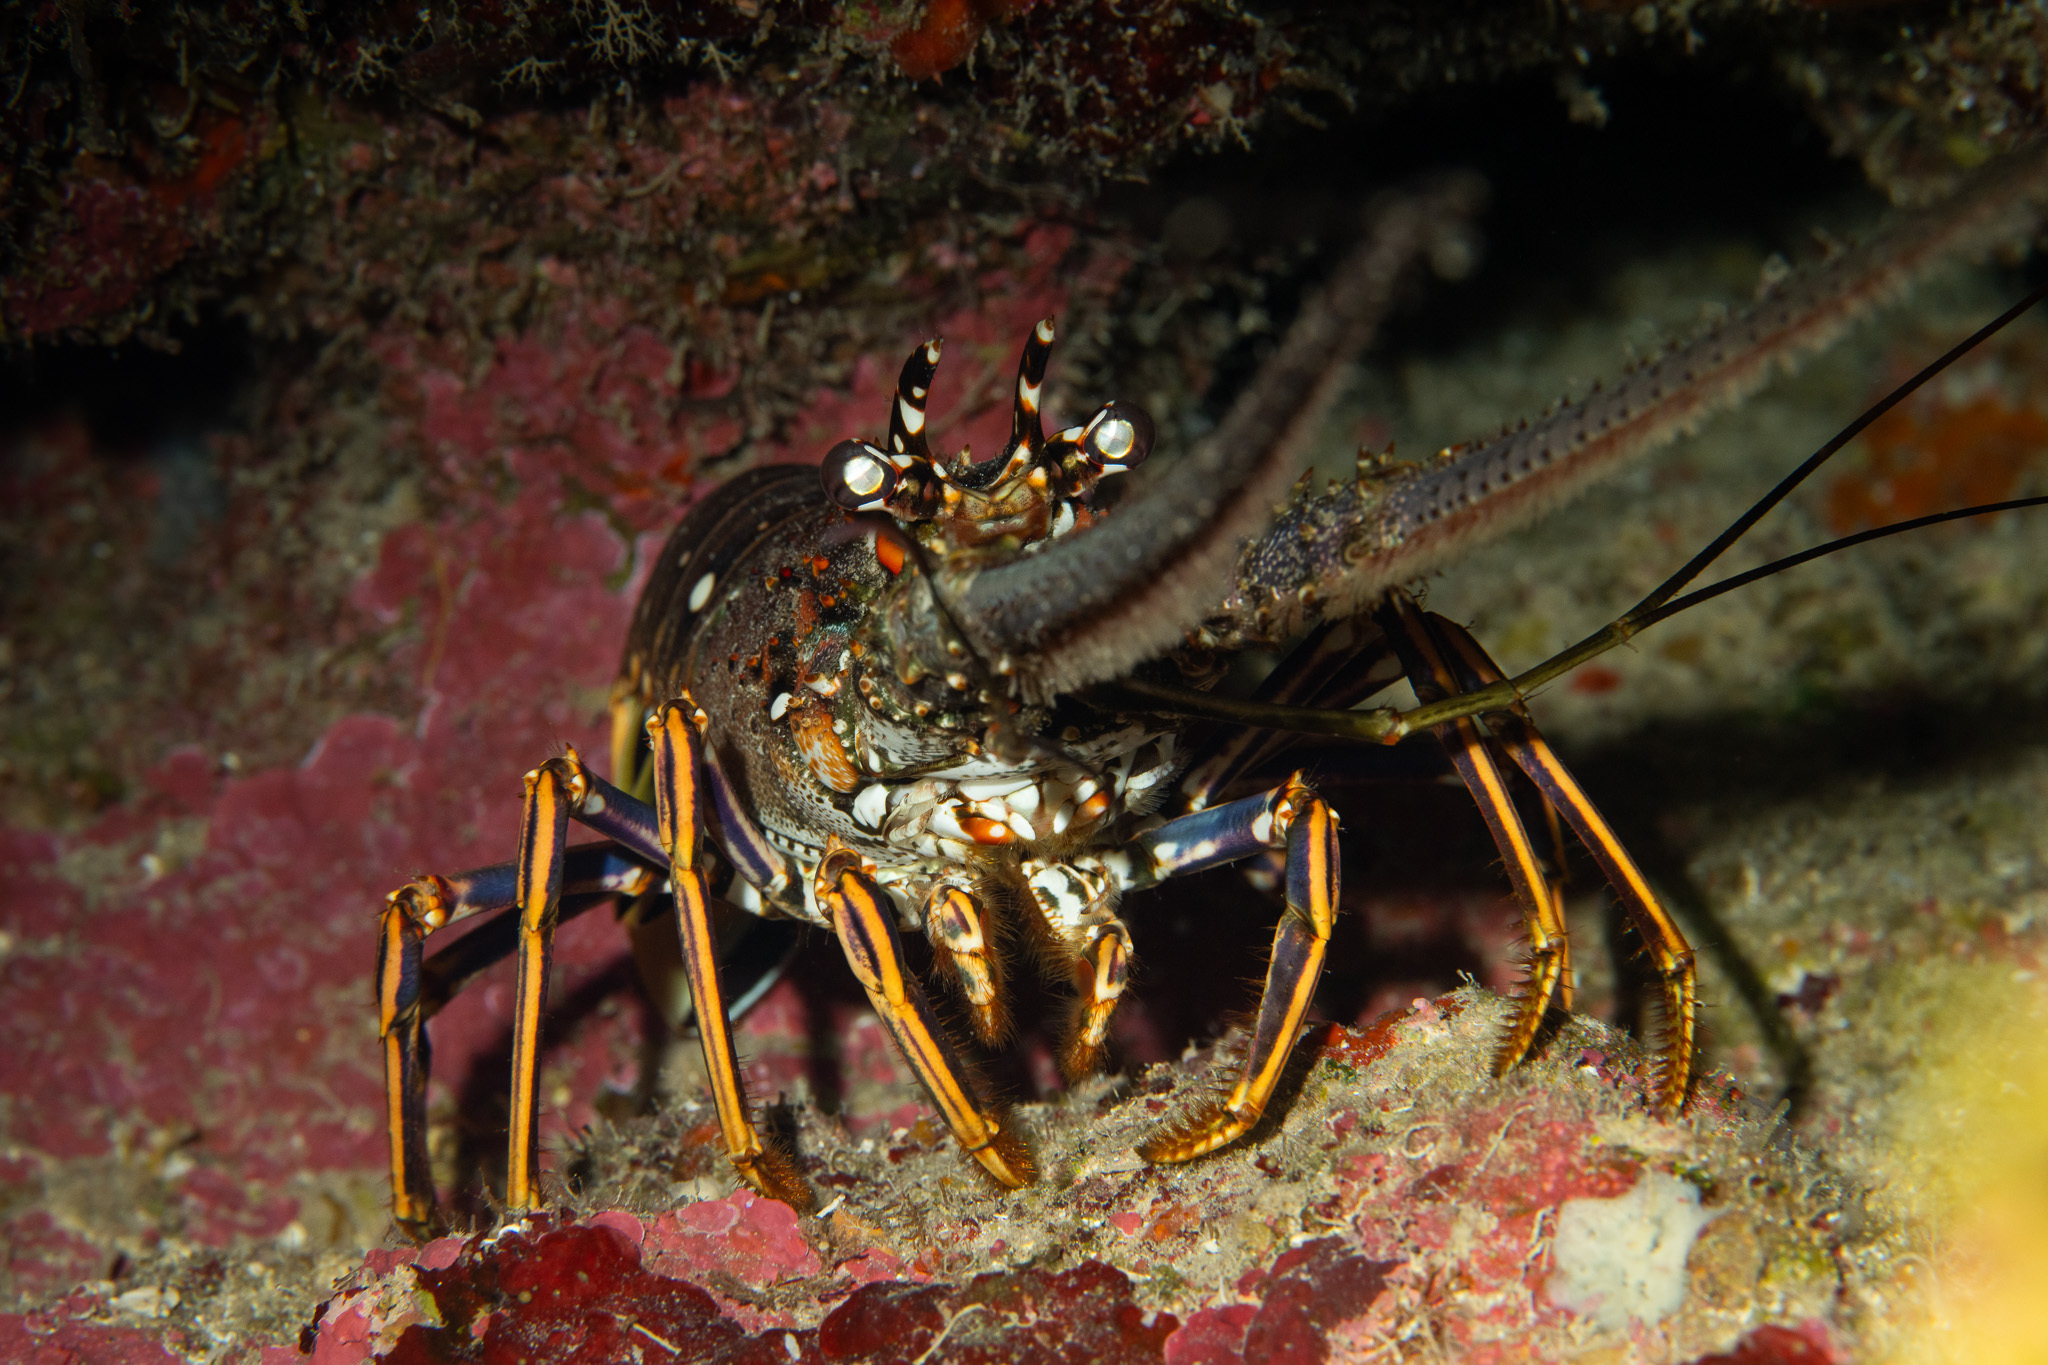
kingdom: Animalia
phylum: Arthropoda
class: Malacostraca
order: Decapoda
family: Palinuridae
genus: Panulirus
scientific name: Panulirus argus
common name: Caribbean spiny lobster
